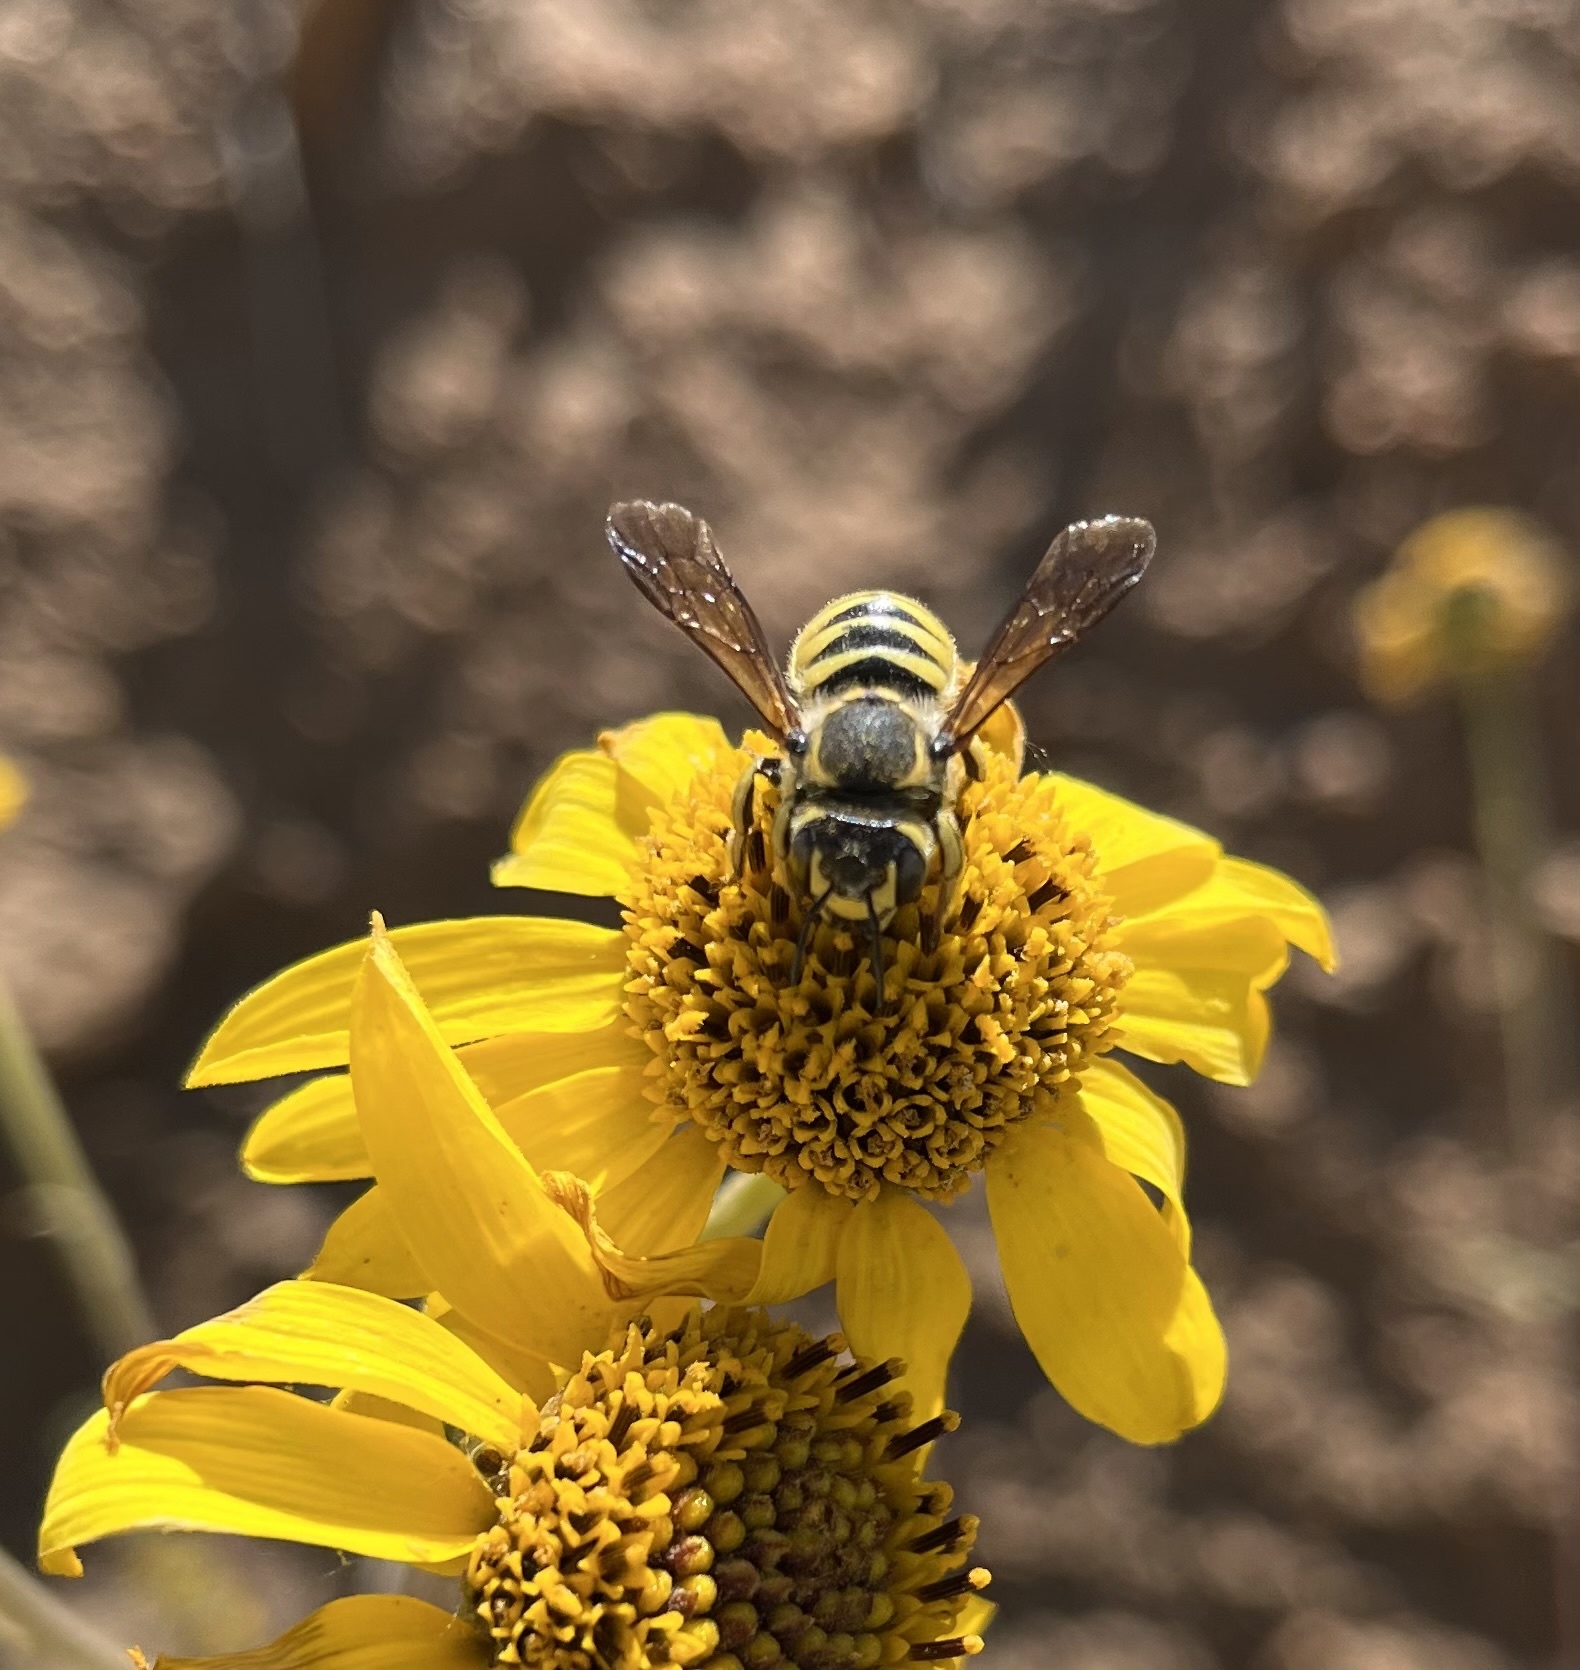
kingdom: Animalia
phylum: Arthropoda
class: Insecta
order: Hymenoptera
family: Megachilidae
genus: Trachusa
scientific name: Trachusa timberlakei
